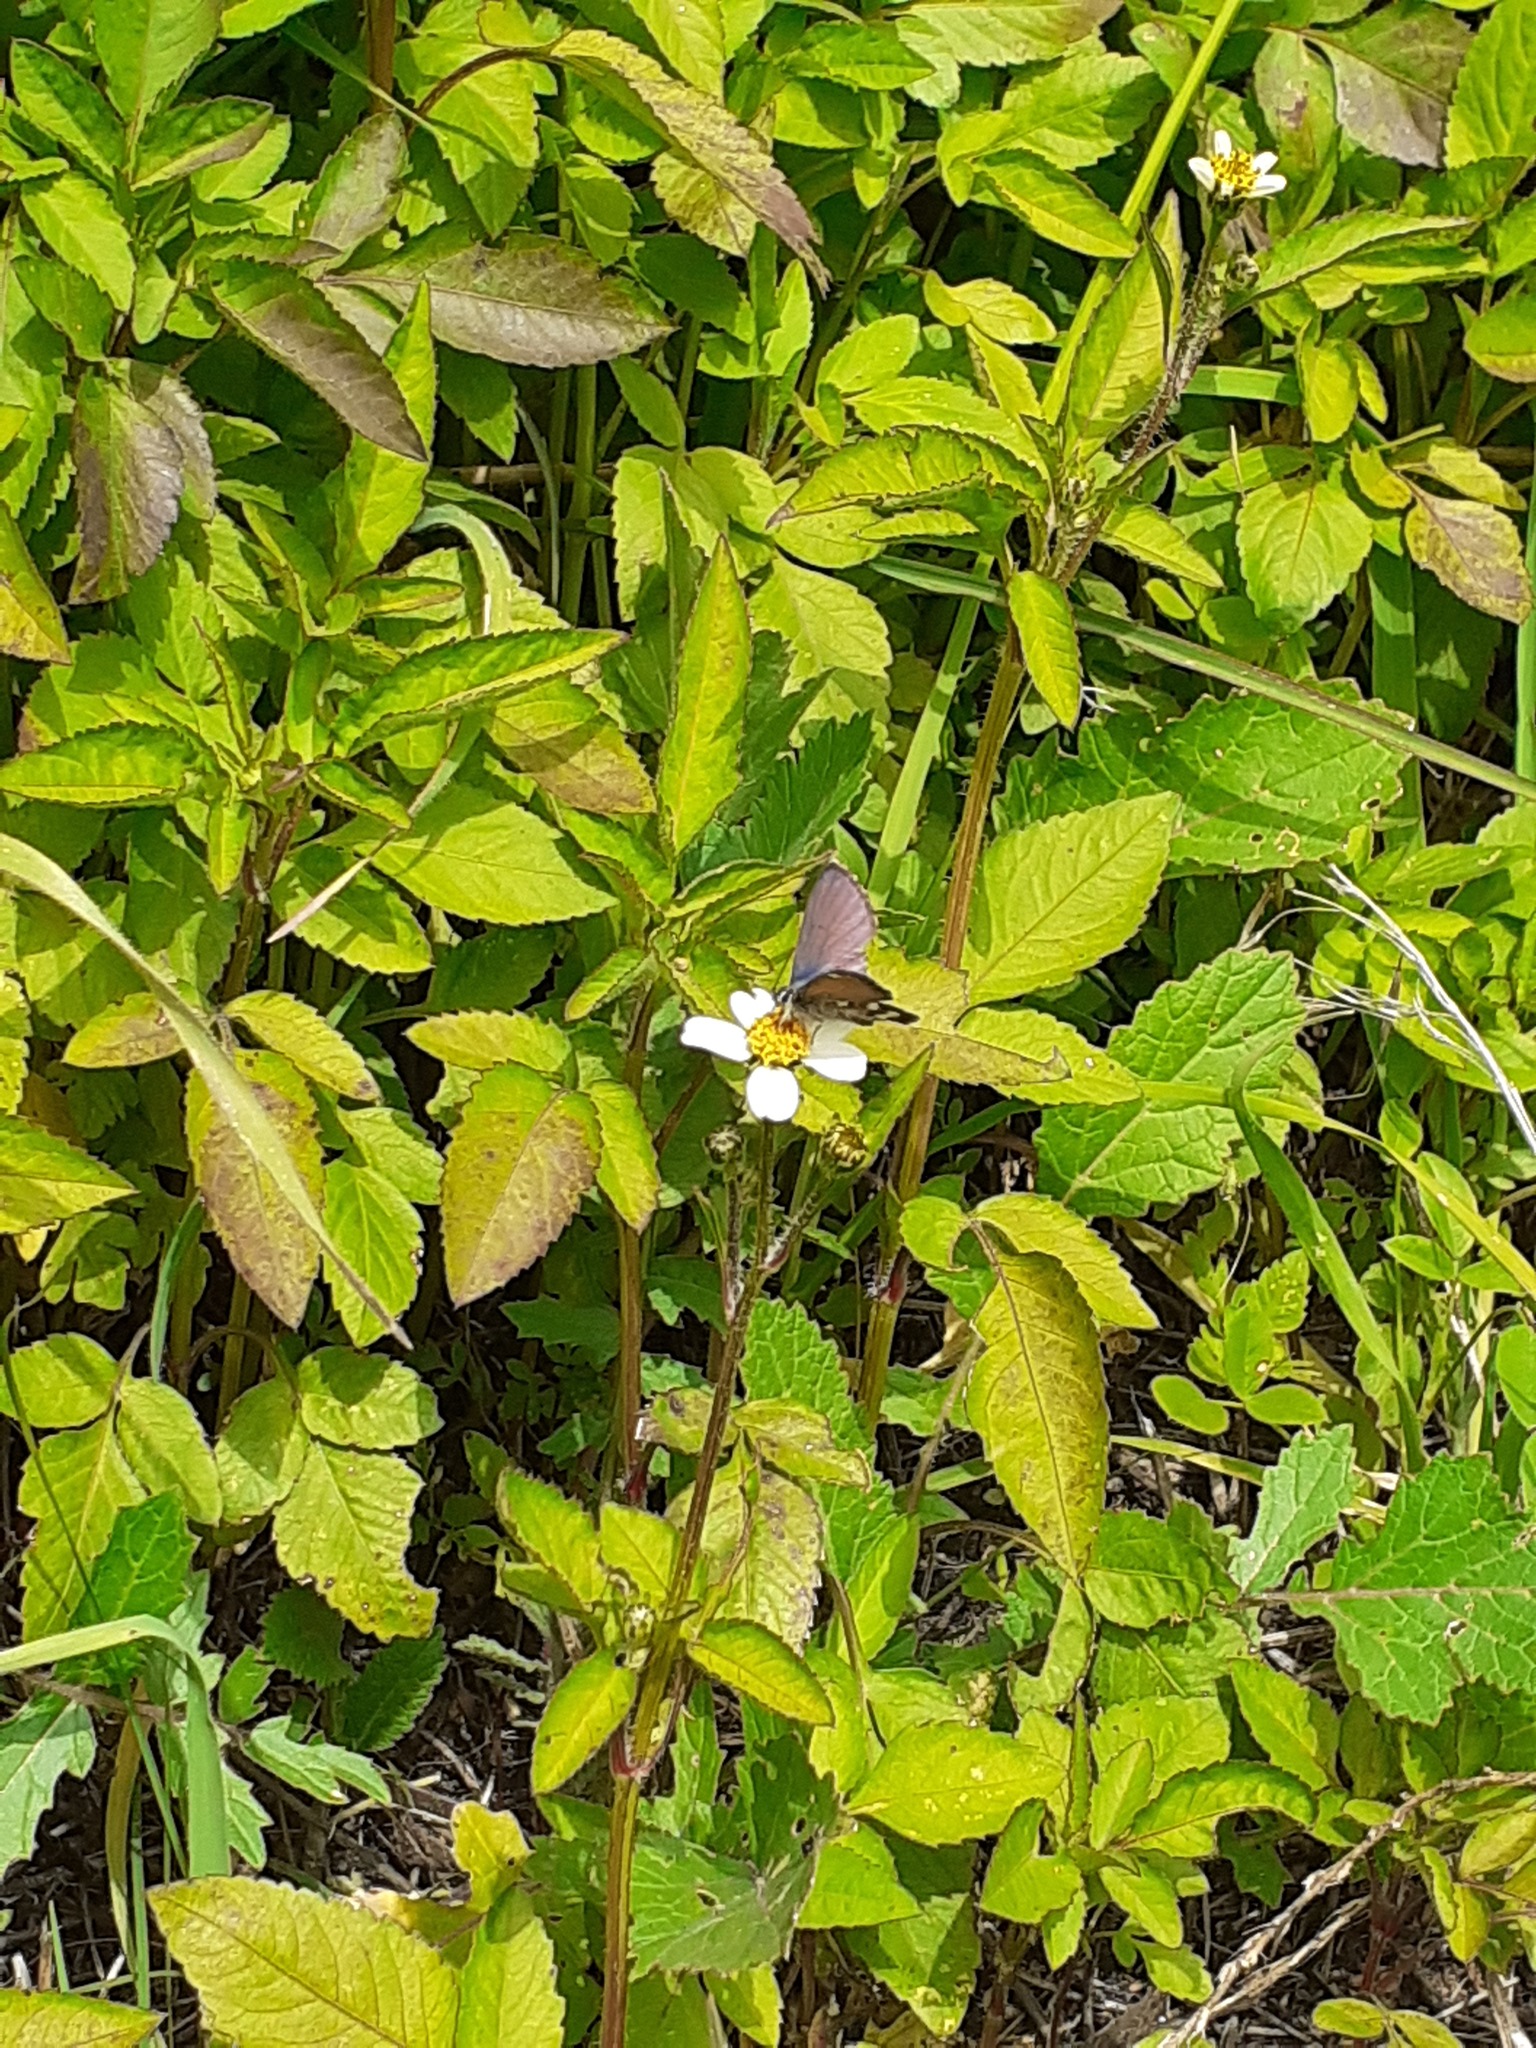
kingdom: Animalia
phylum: Arthropoda
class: Insecta
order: Lepidoptera
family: Lycaenidae
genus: Cyclyrius
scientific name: Cyclyrius webbianus
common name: Canary blue
